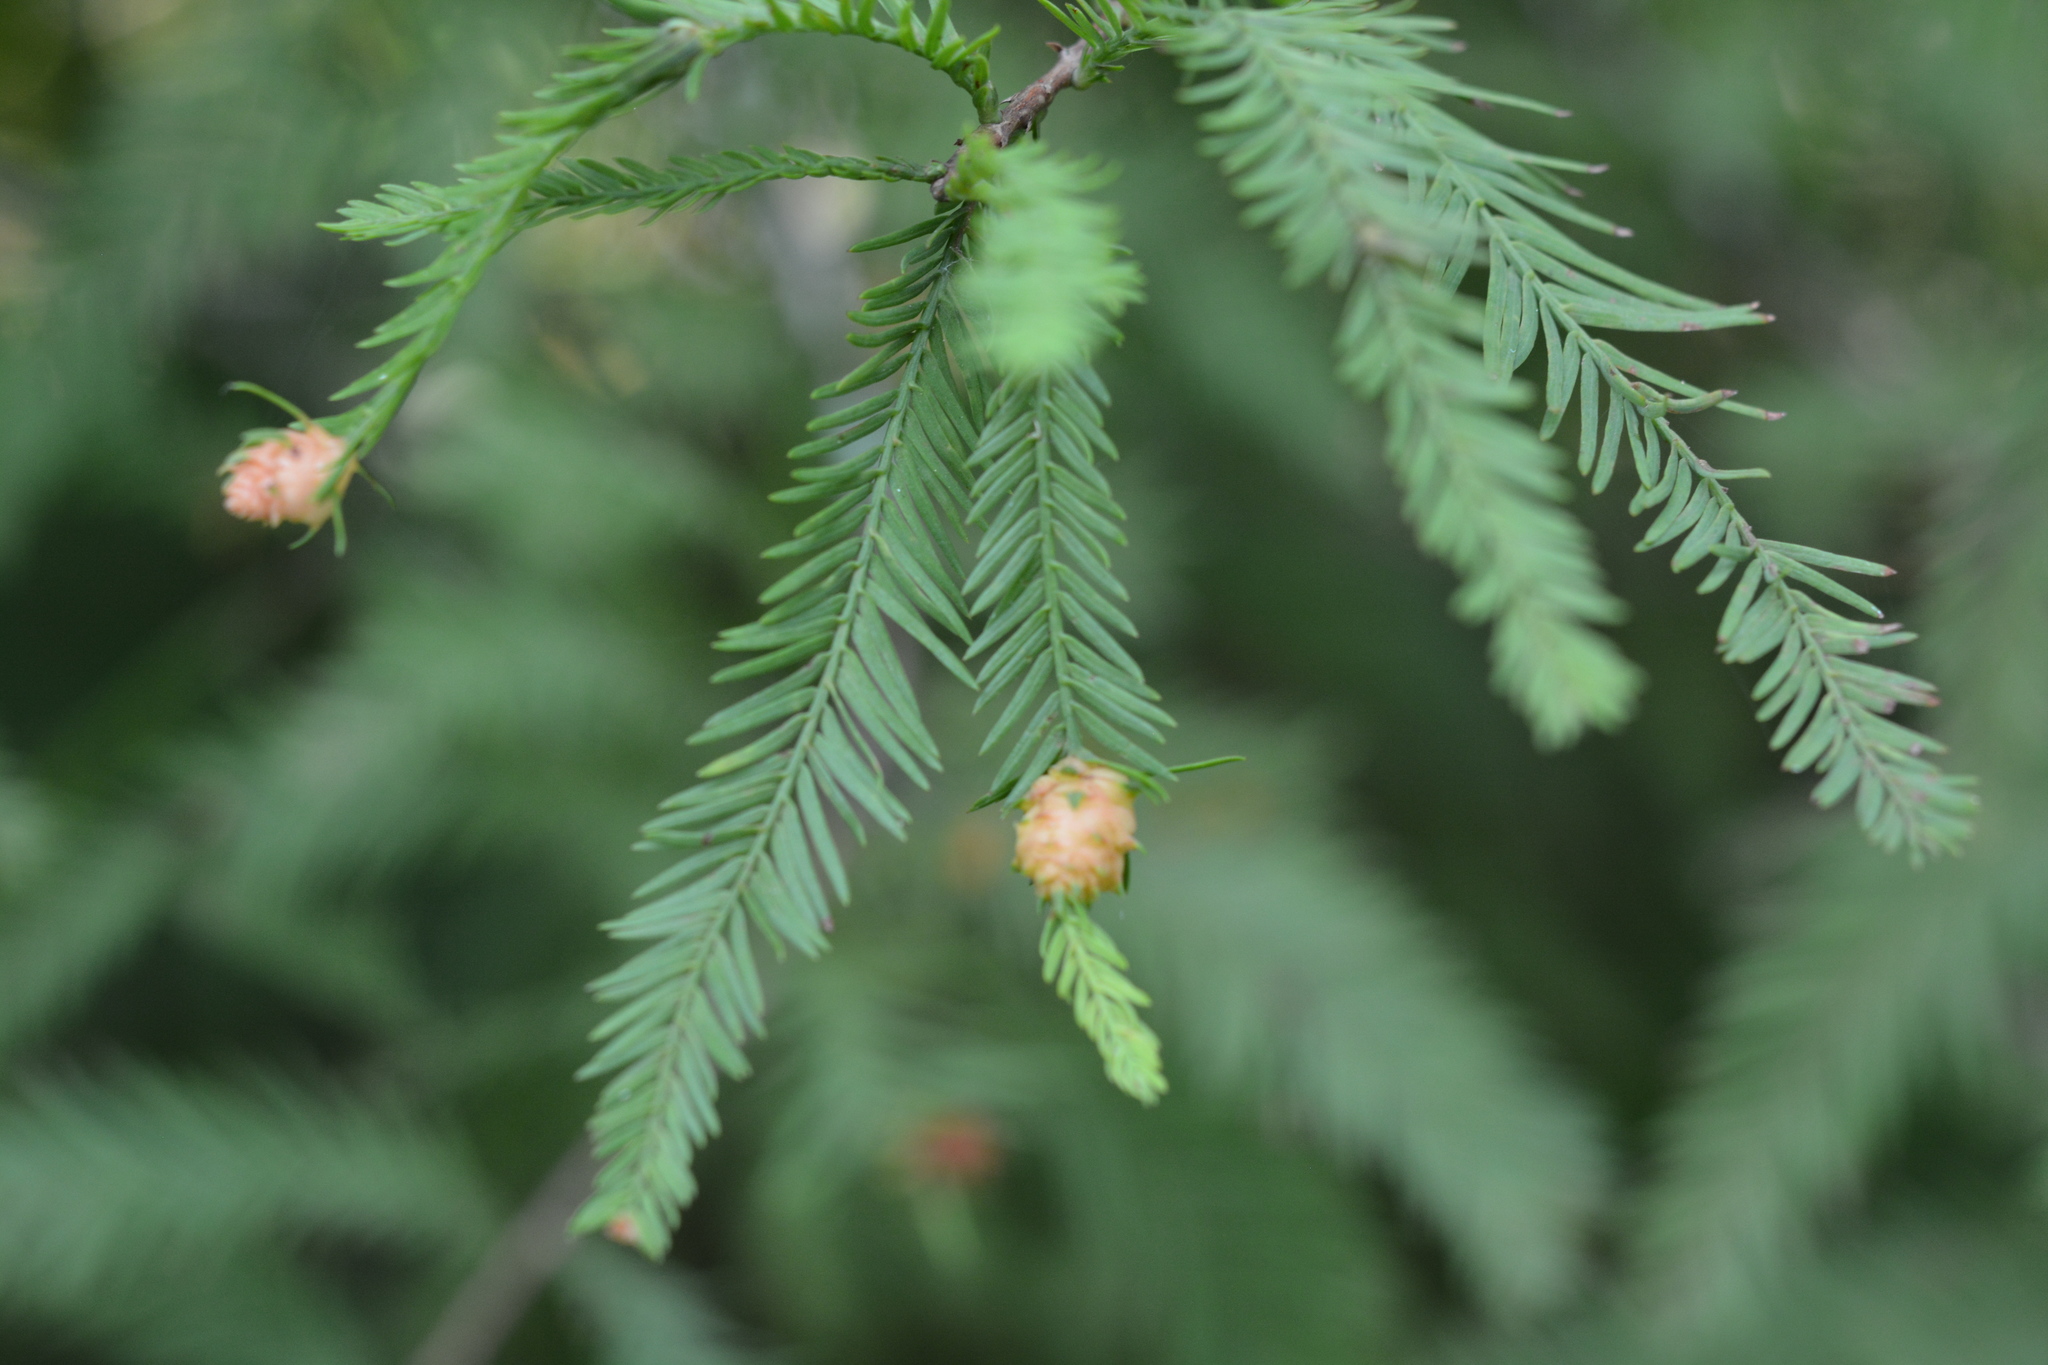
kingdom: Animalia
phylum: Arthropoda
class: Insecta
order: Diptera
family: Cecidomyiidae
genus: Taxodiomyia
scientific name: Taxodiomyia cupressiananassa
